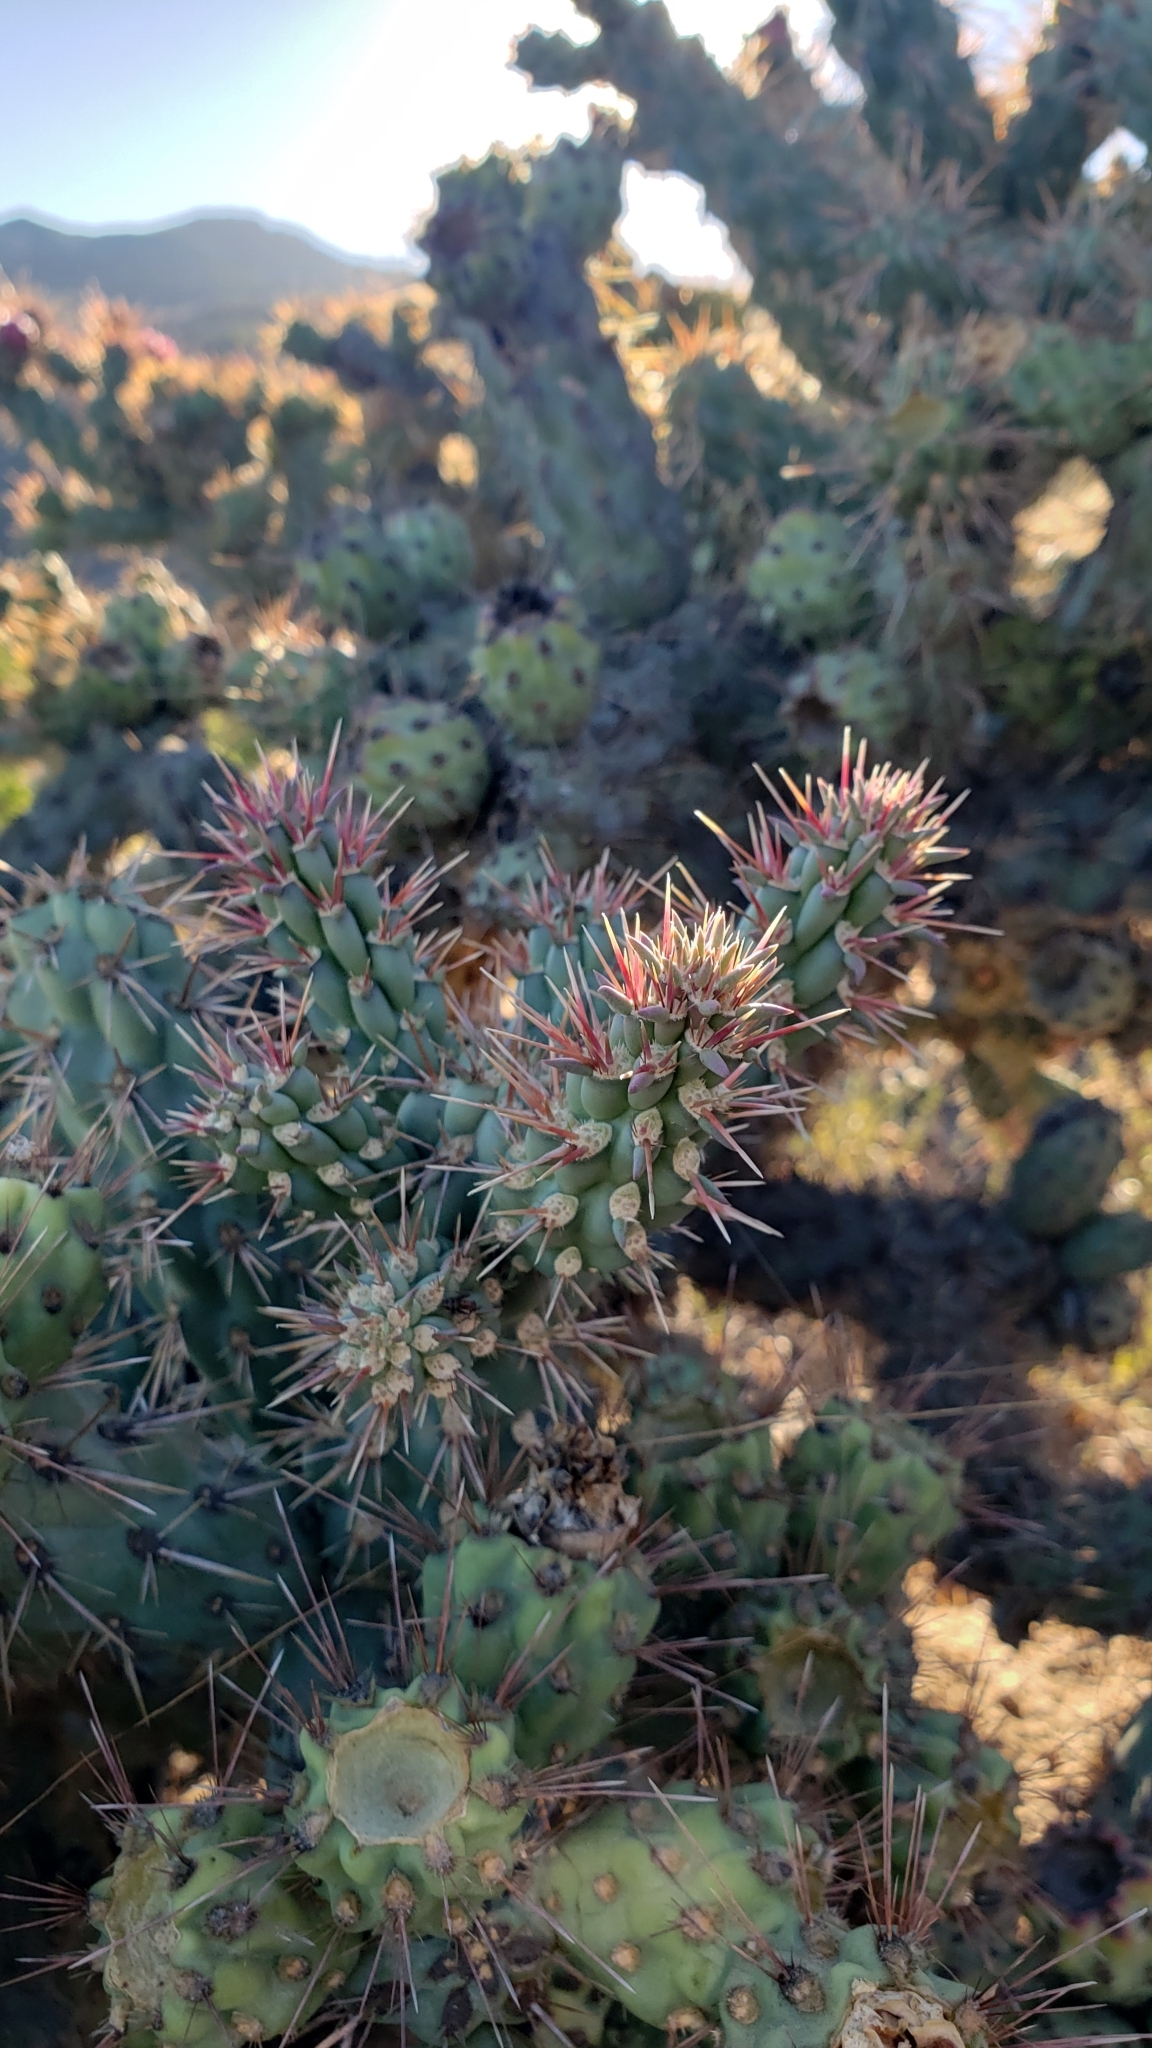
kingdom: Plantae
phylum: Tracheophyta
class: Magnoliopsida
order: Caryophyllales
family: Cactaceae
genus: Cylindropuntia
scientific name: Cylindropuntia prolifera
